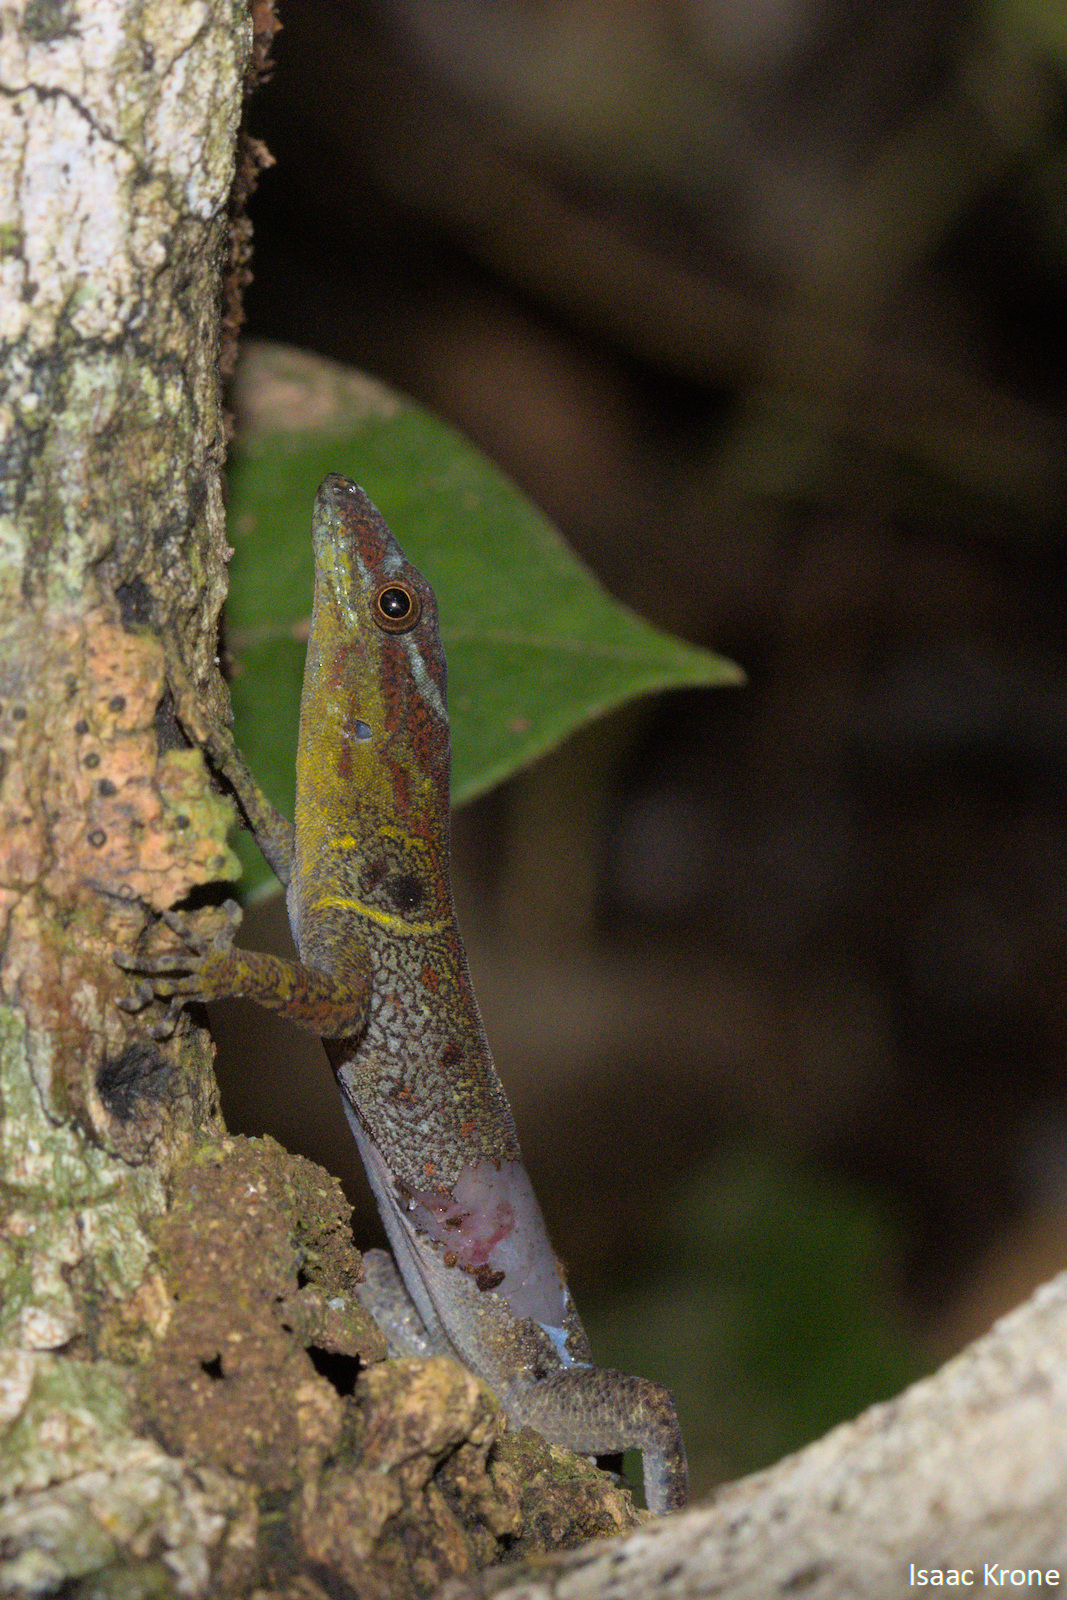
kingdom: Animalia
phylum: Chordata
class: Squamata
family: Sphaerodactylidae
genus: Gonatodes
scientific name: Gonatodes humeralis
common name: South american clawed gecko
